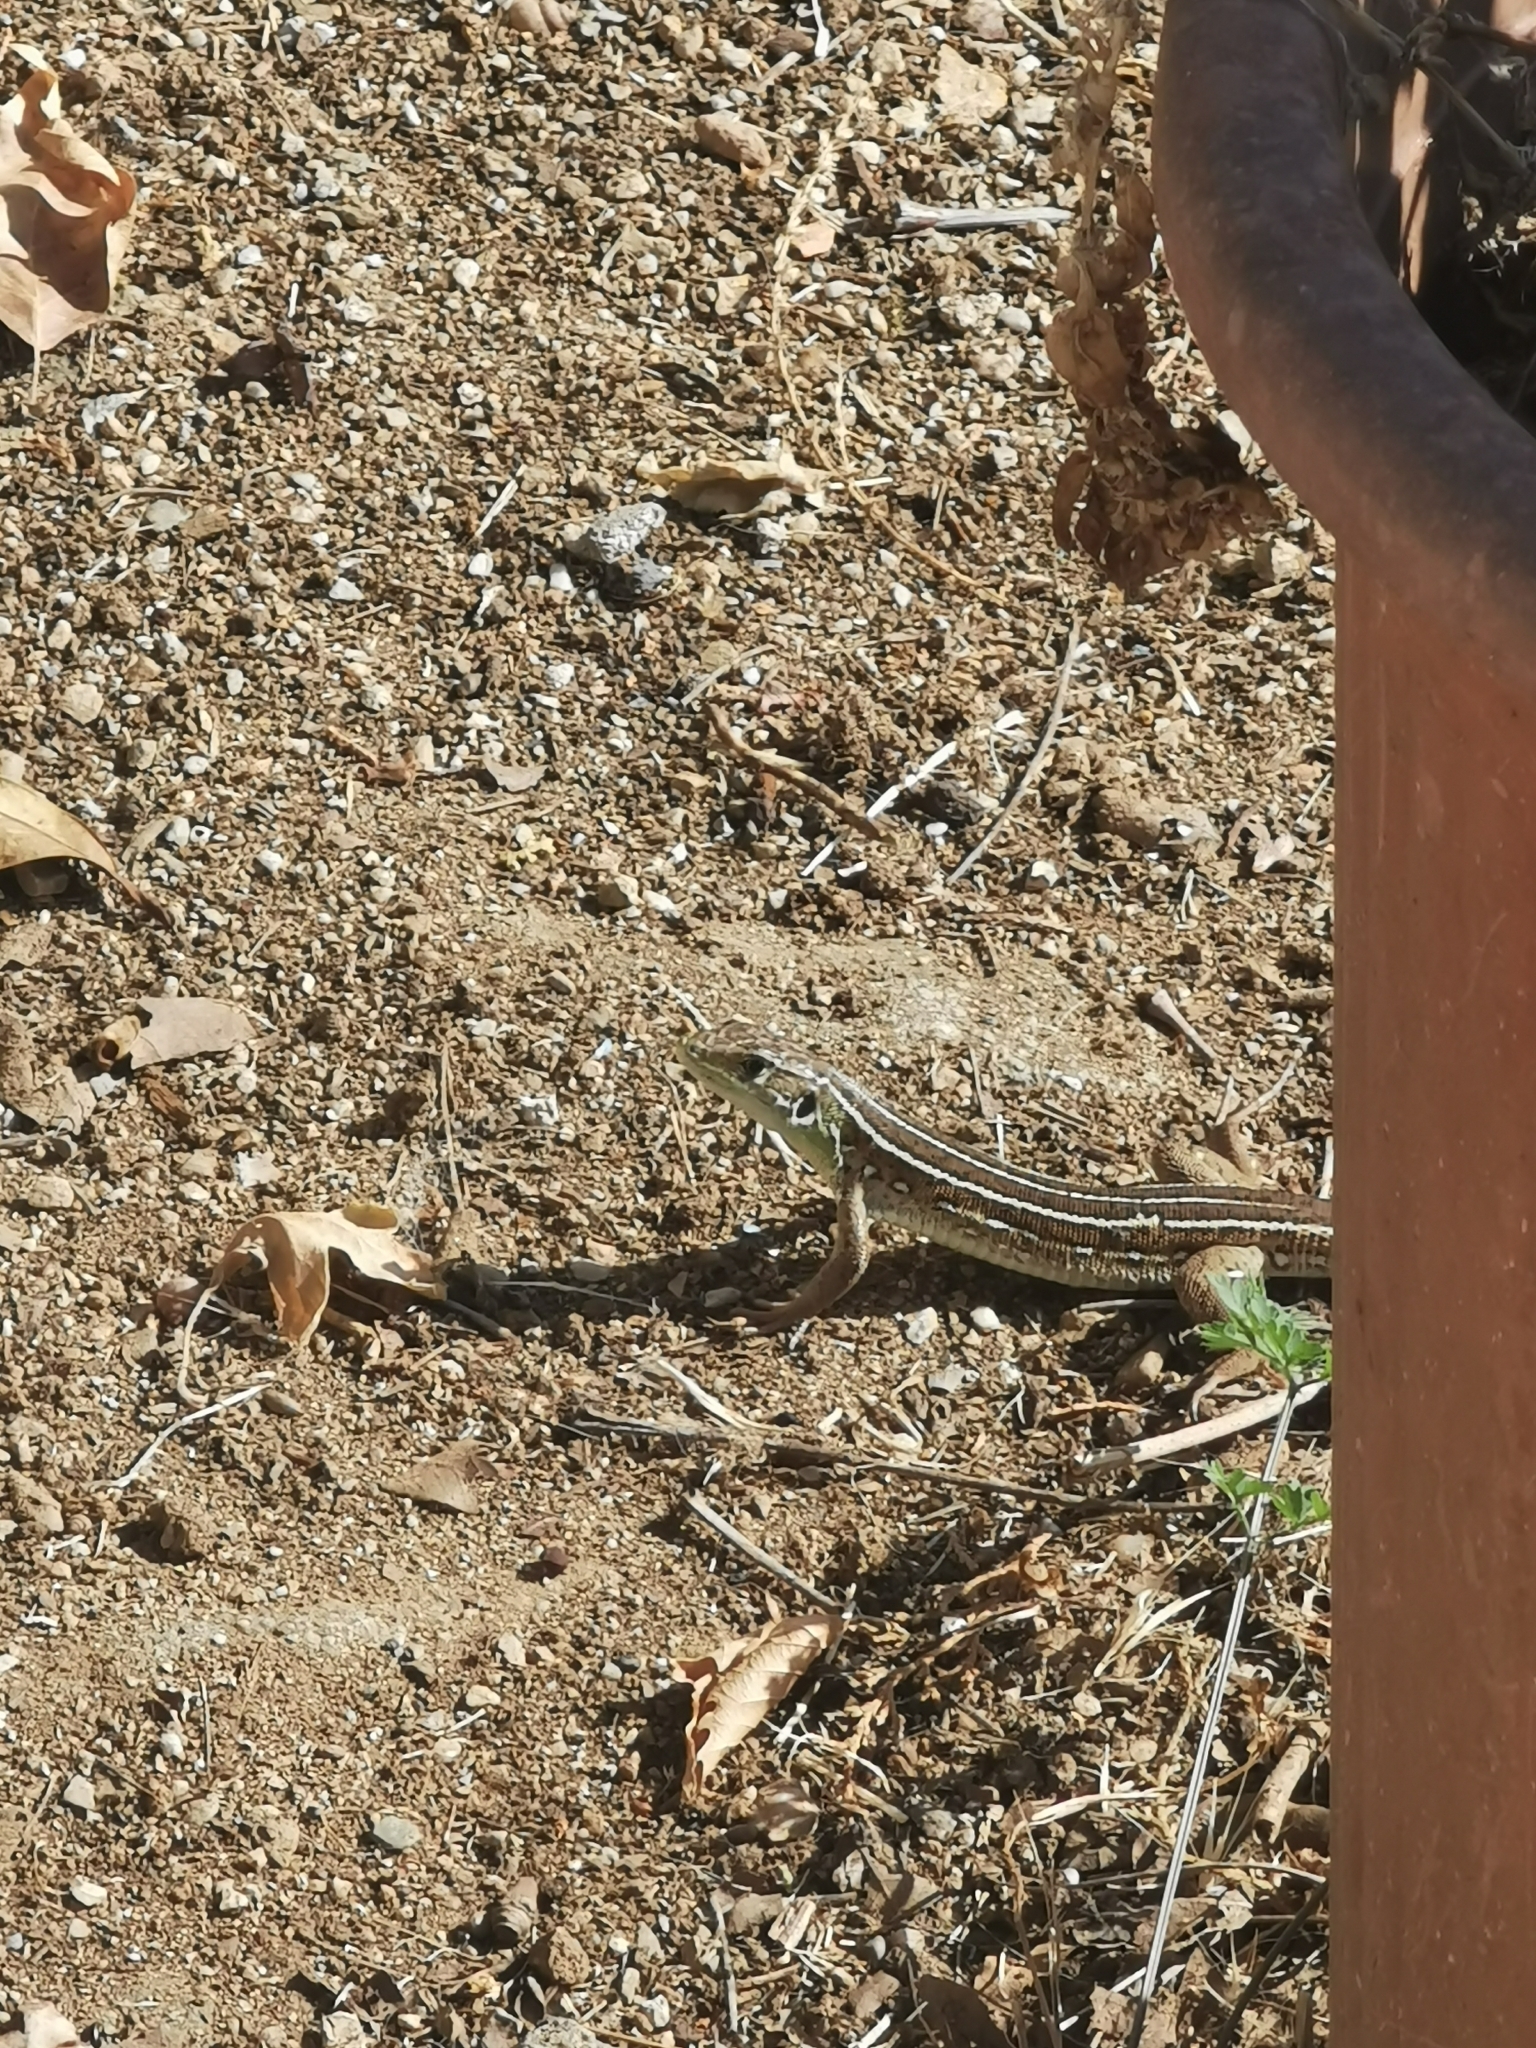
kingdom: Animalia
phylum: Chordata
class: Squamata
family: Lacertidae
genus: Lacerta
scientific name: Lacerta trilineata
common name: Balkan green lizard
